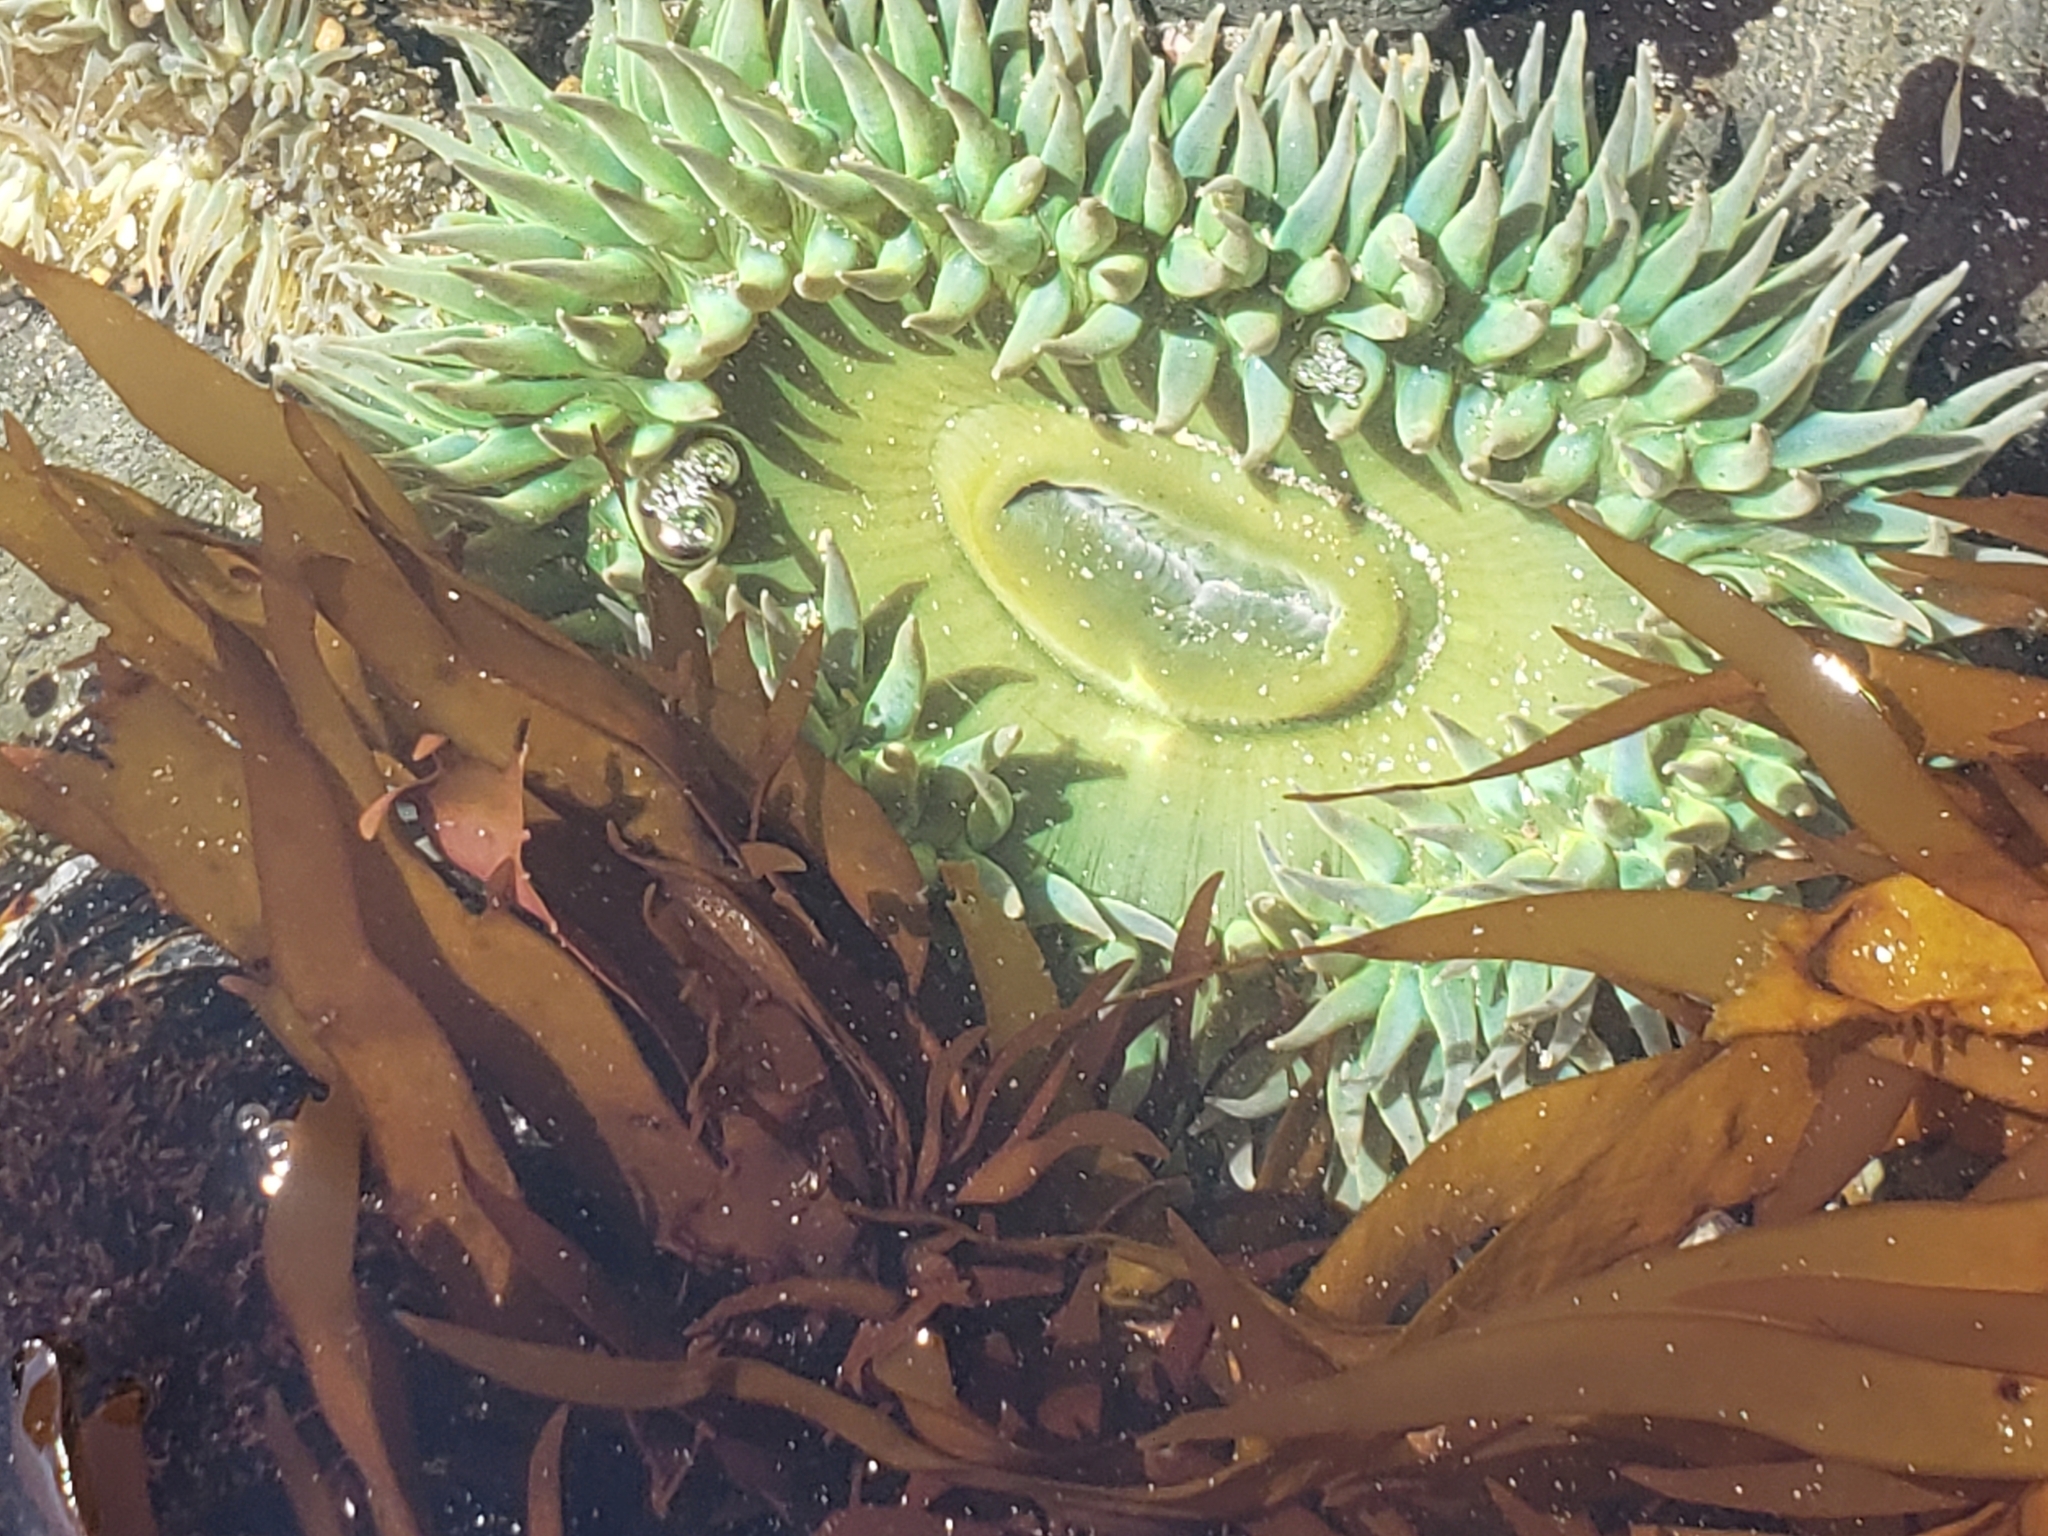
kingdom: Animalia
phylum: Cnidaria
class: Anthozoa
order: Actiniaria
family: Actiniidae
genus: Anthopleura
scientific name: Anthopleura xanthogrammica
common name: Giant green anemone
